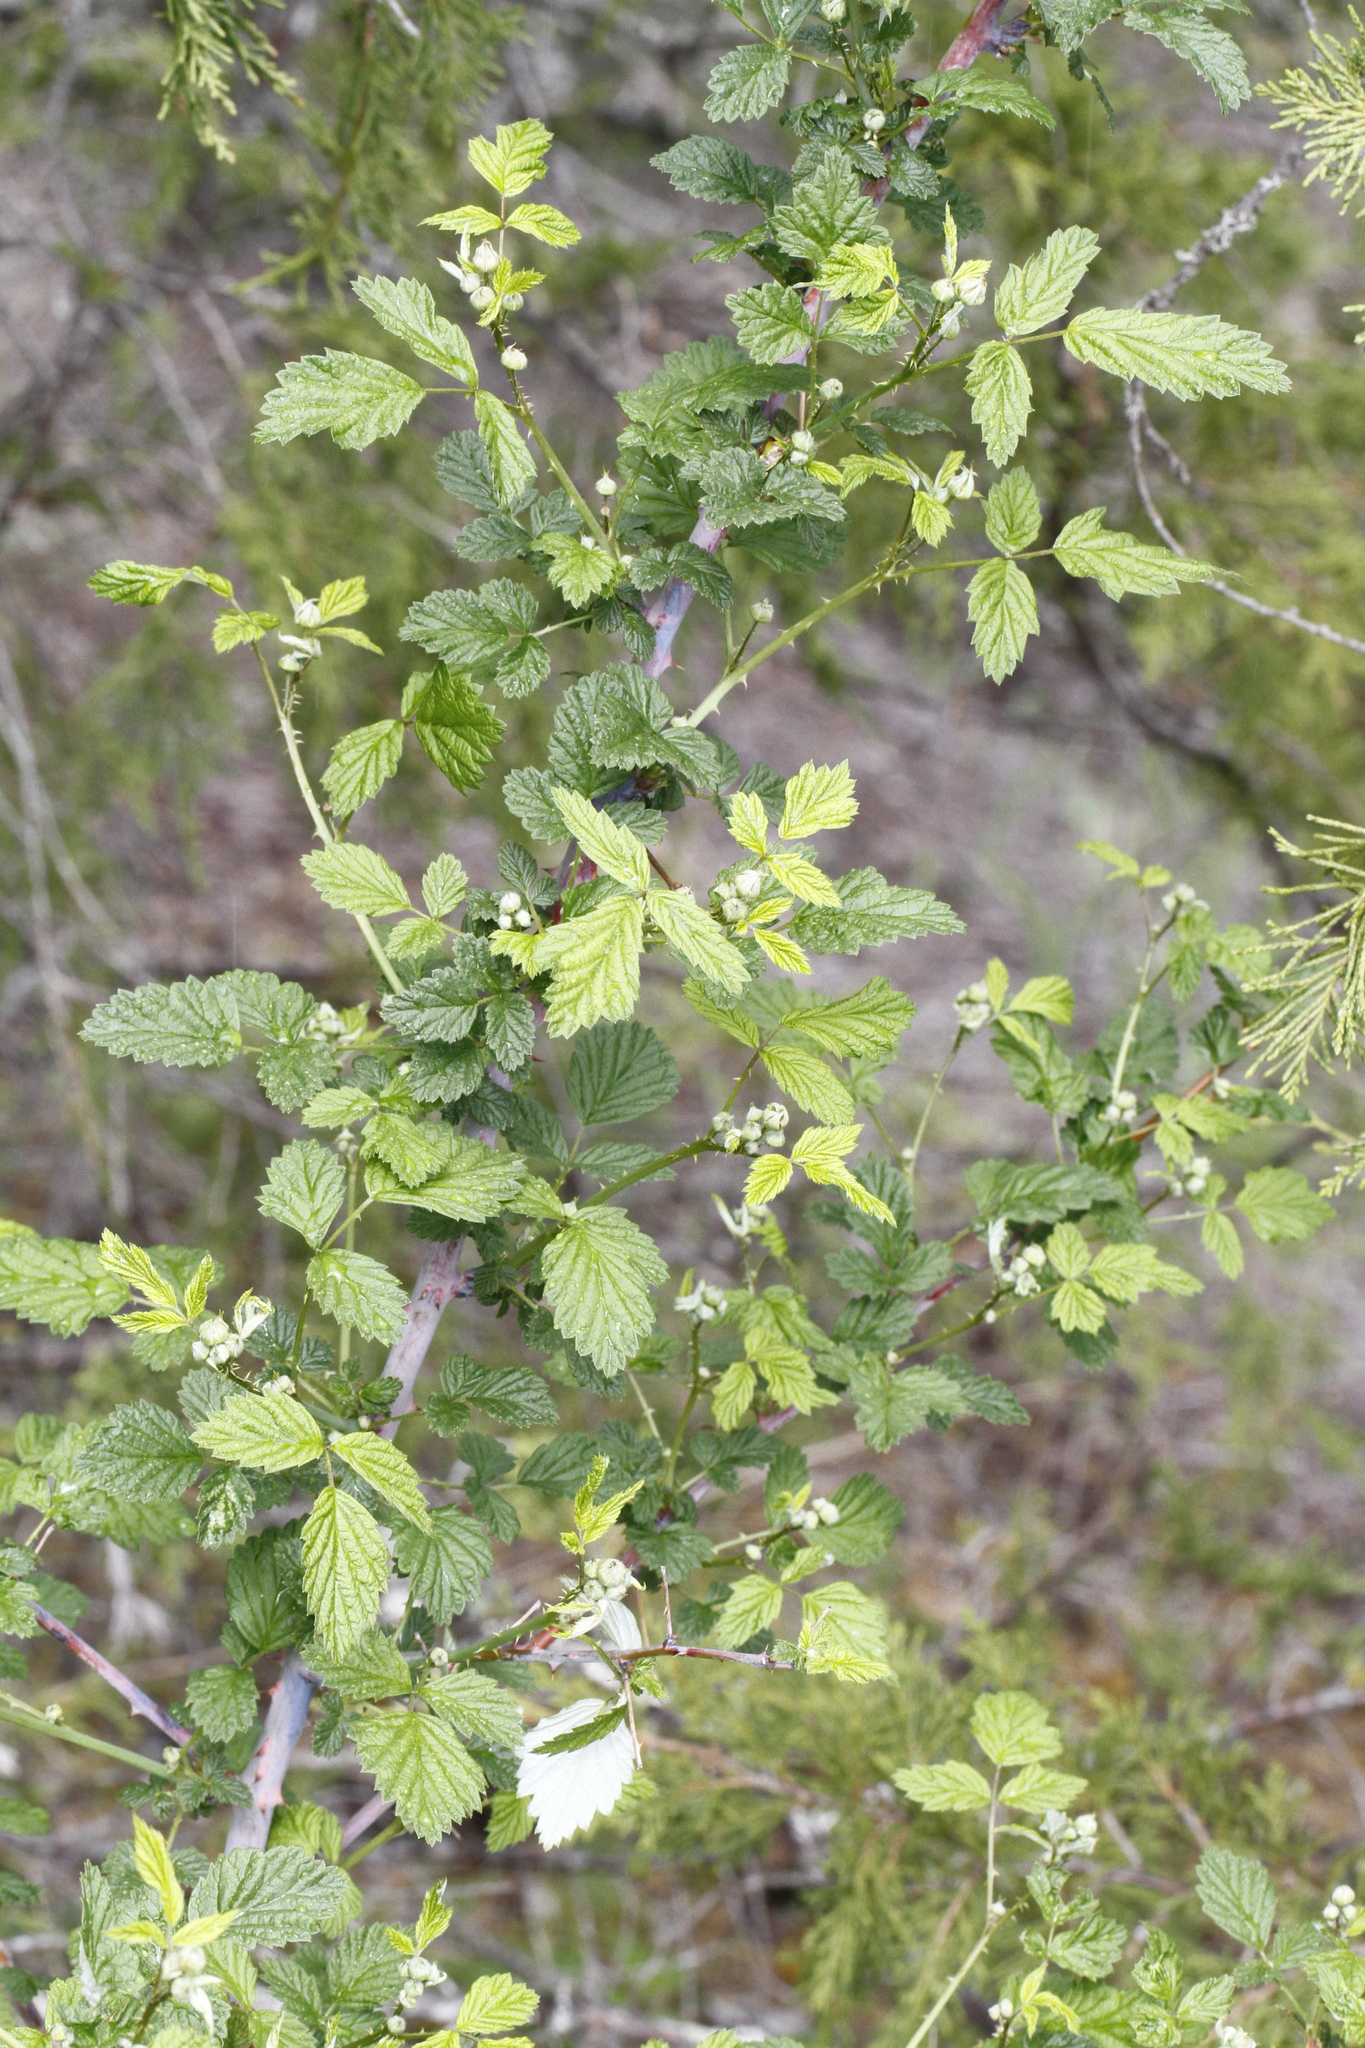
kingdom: Plantae
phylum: Tracheophyta
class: Magnoliopsida
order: Rosales
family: Rosaceae
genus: Rubus
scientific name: Rubus leucodermis
